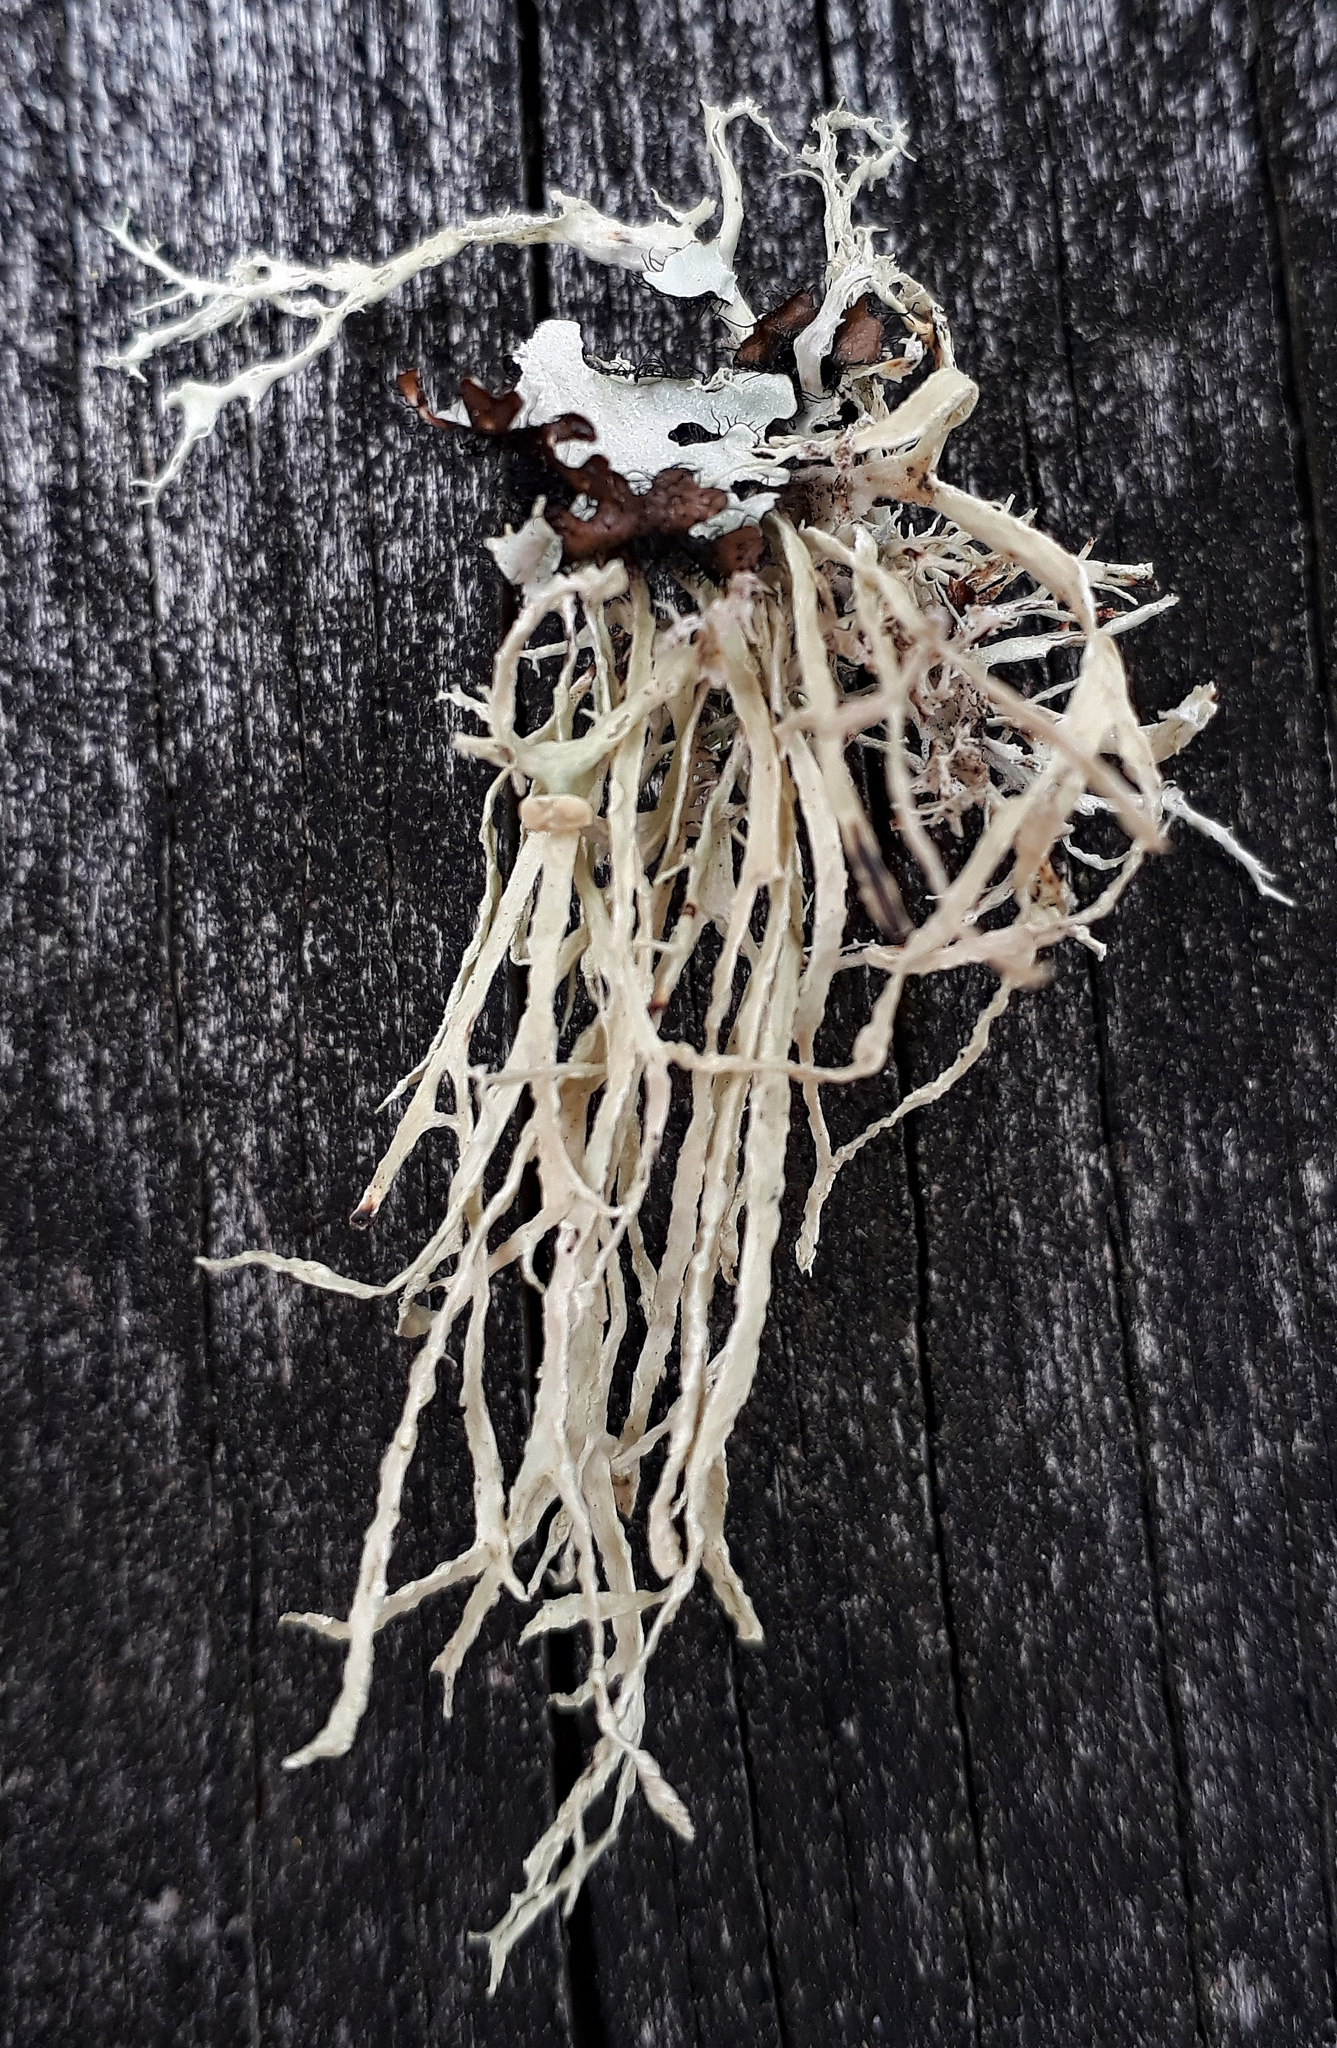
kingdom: Fungi
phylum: Ascomycota
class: Lecanoromycetes
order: Lecanorales
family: Ramalinaceae
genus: Ramalina
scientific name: Ramalina pacifica
